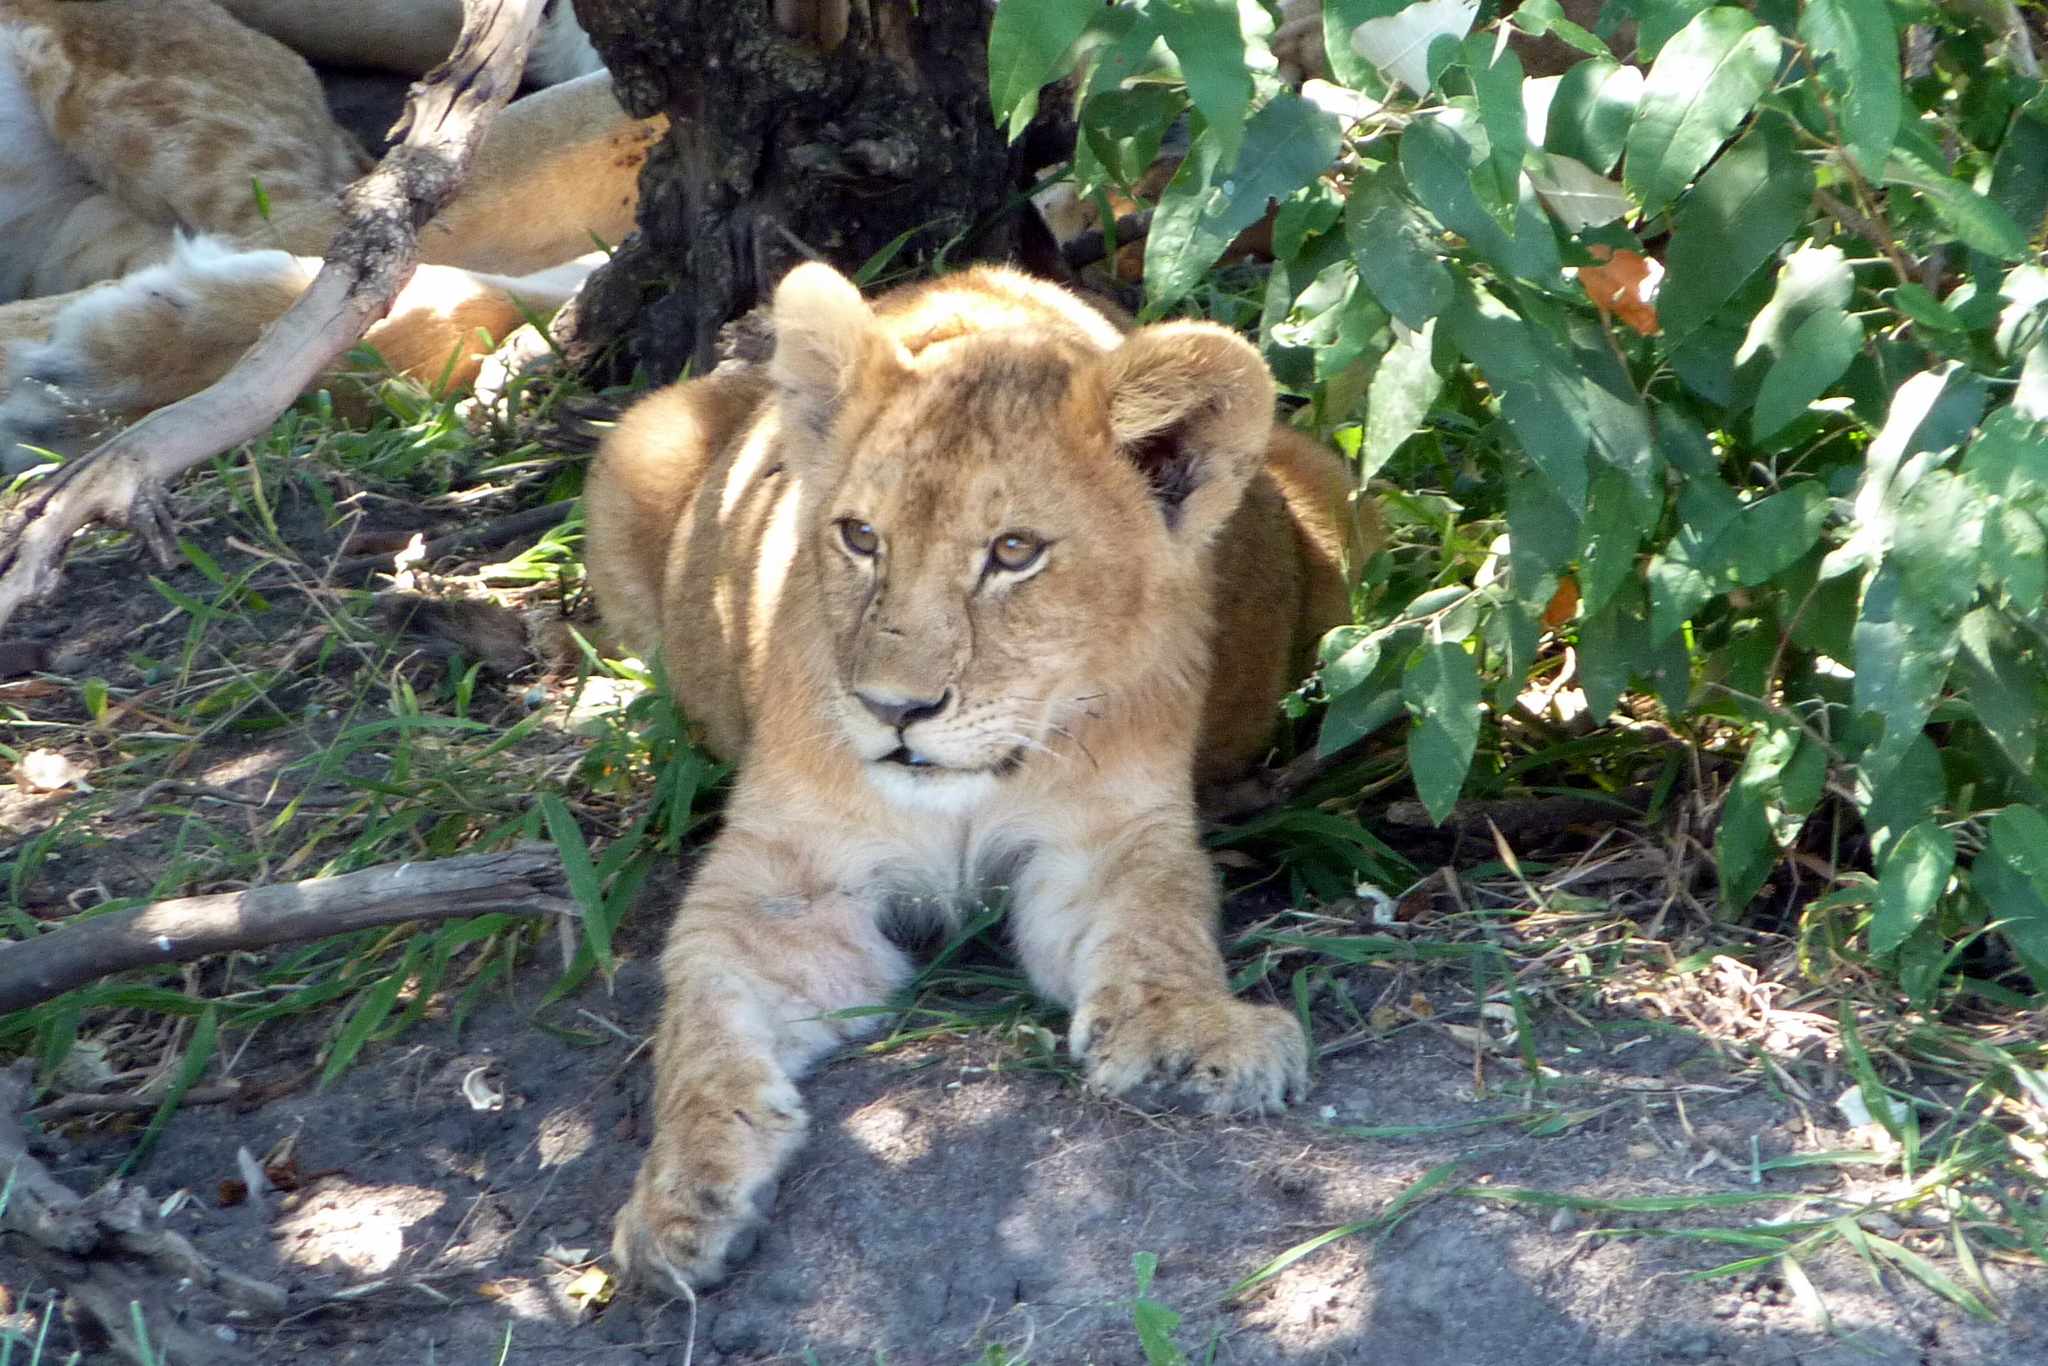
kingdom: Animalia
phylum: Chordata
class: Mammalia
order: Carnivora
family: Felidae
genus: Panthera
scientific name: Panthera leo
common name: Lion
